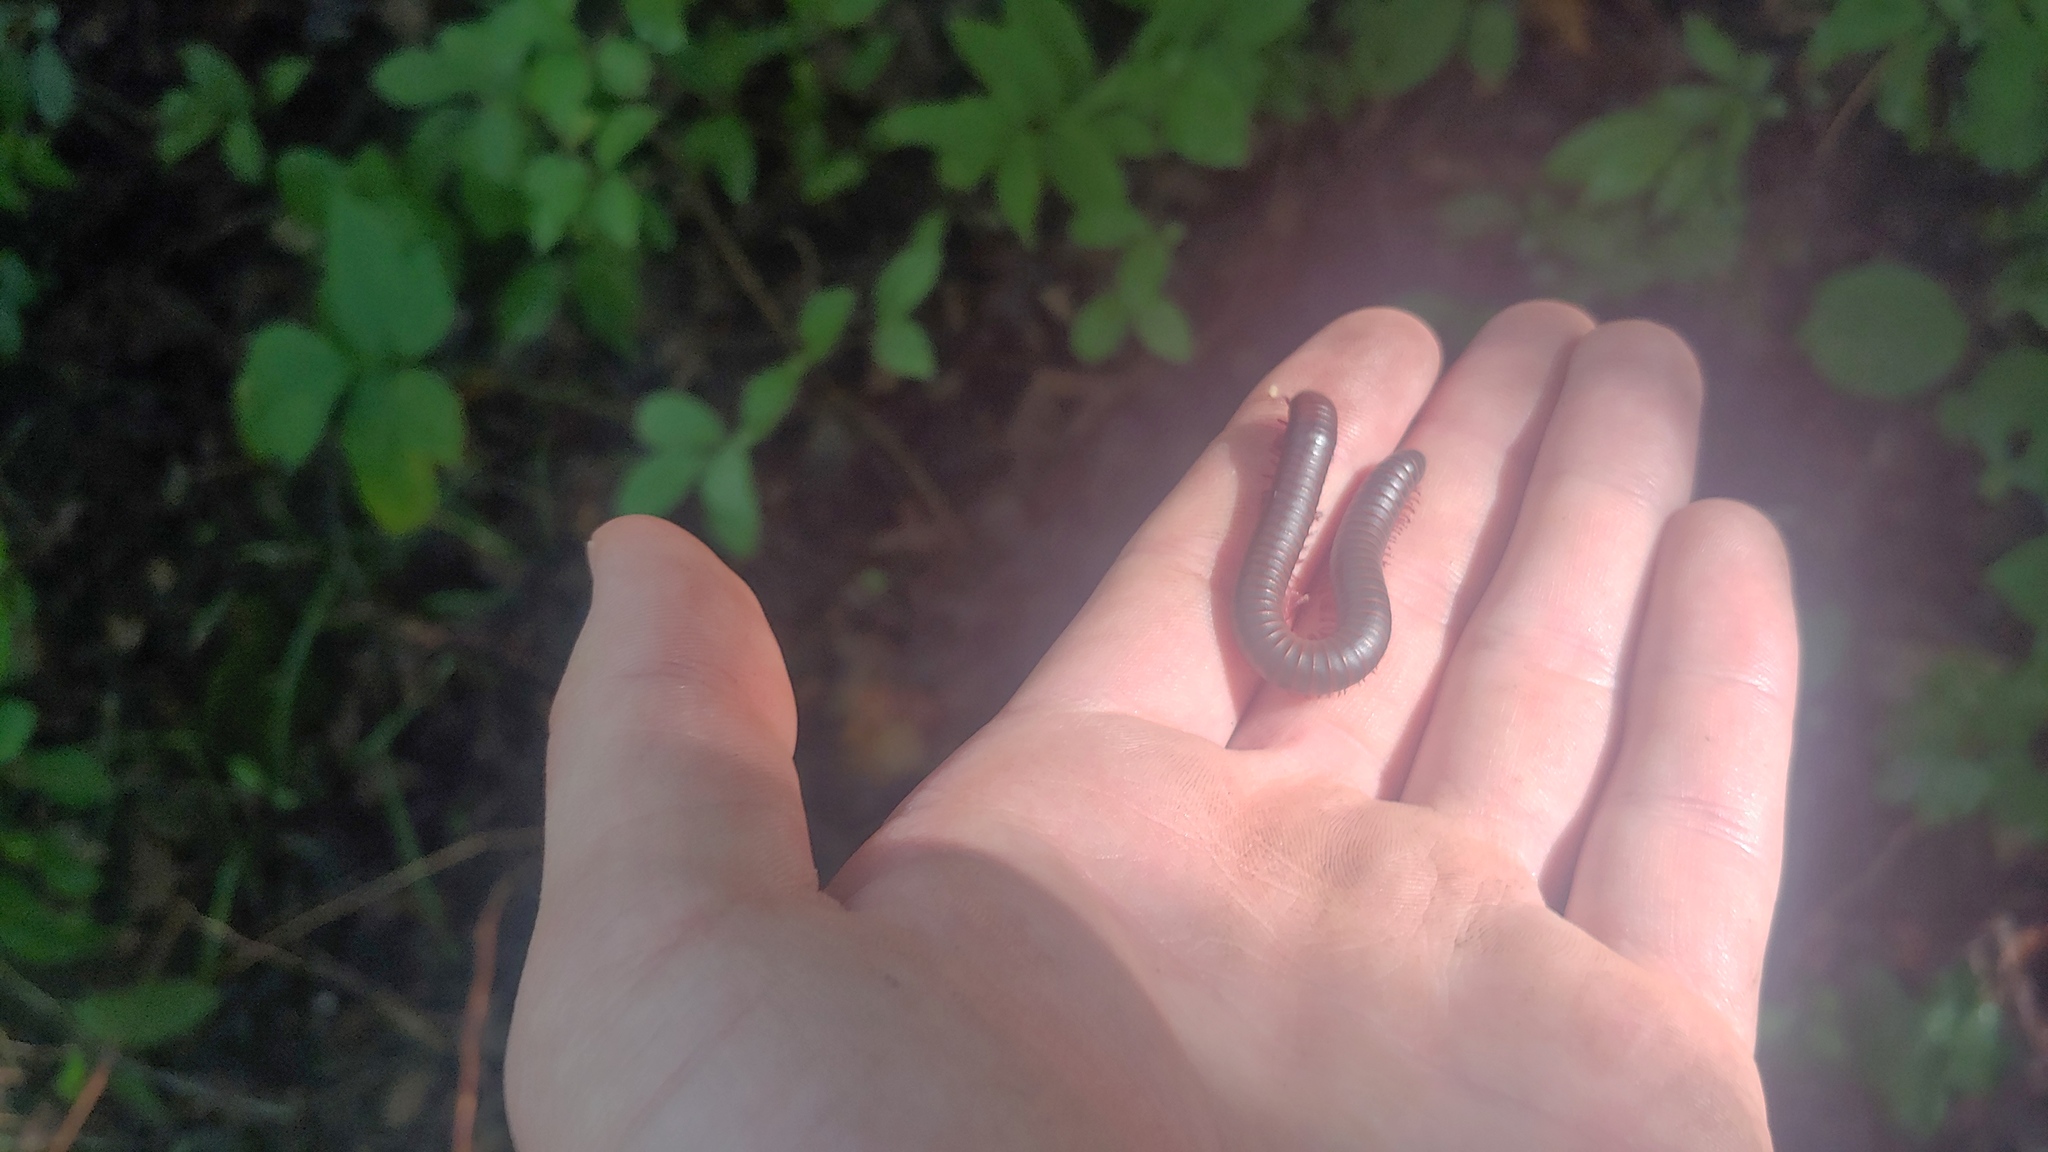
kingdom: Animalia
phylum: Arthropoda
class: Diplopoda
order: Spirobolida
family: Spirobolidae
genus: Narceus
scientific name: Narceus
